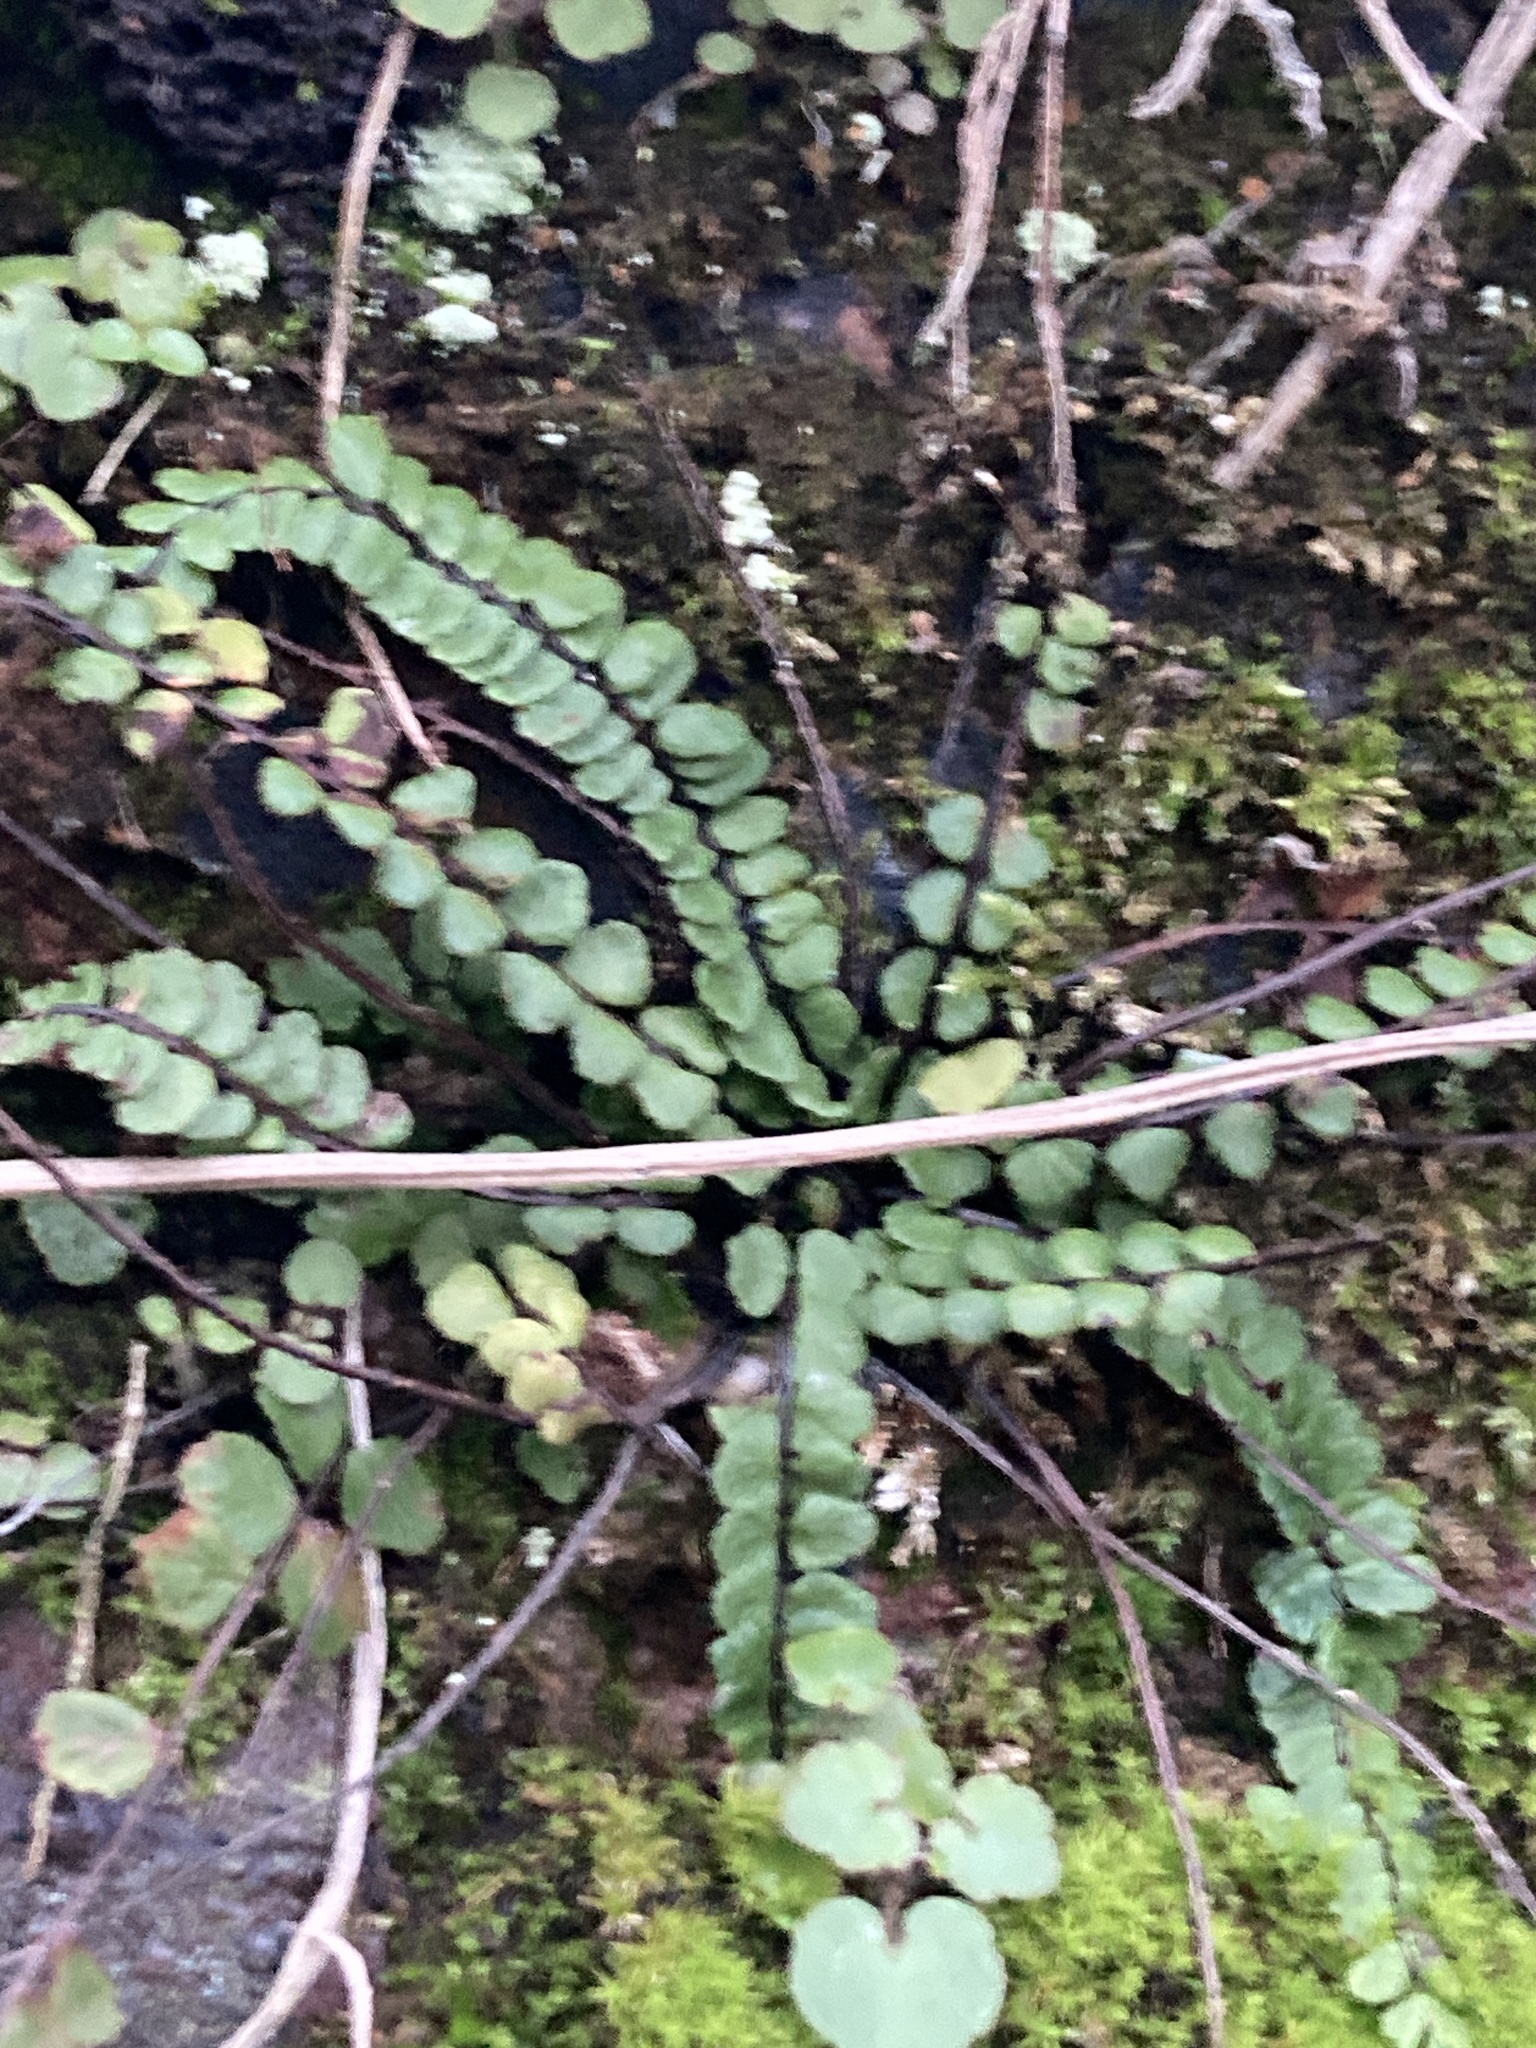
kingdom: Plantae
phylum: Tracheophyta
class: Polypodiopsida
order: Polypodiales
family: Aspleniaceae
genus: Asplenium
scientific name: Asplenium trichomanes
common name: Maidenhair spleenwort
